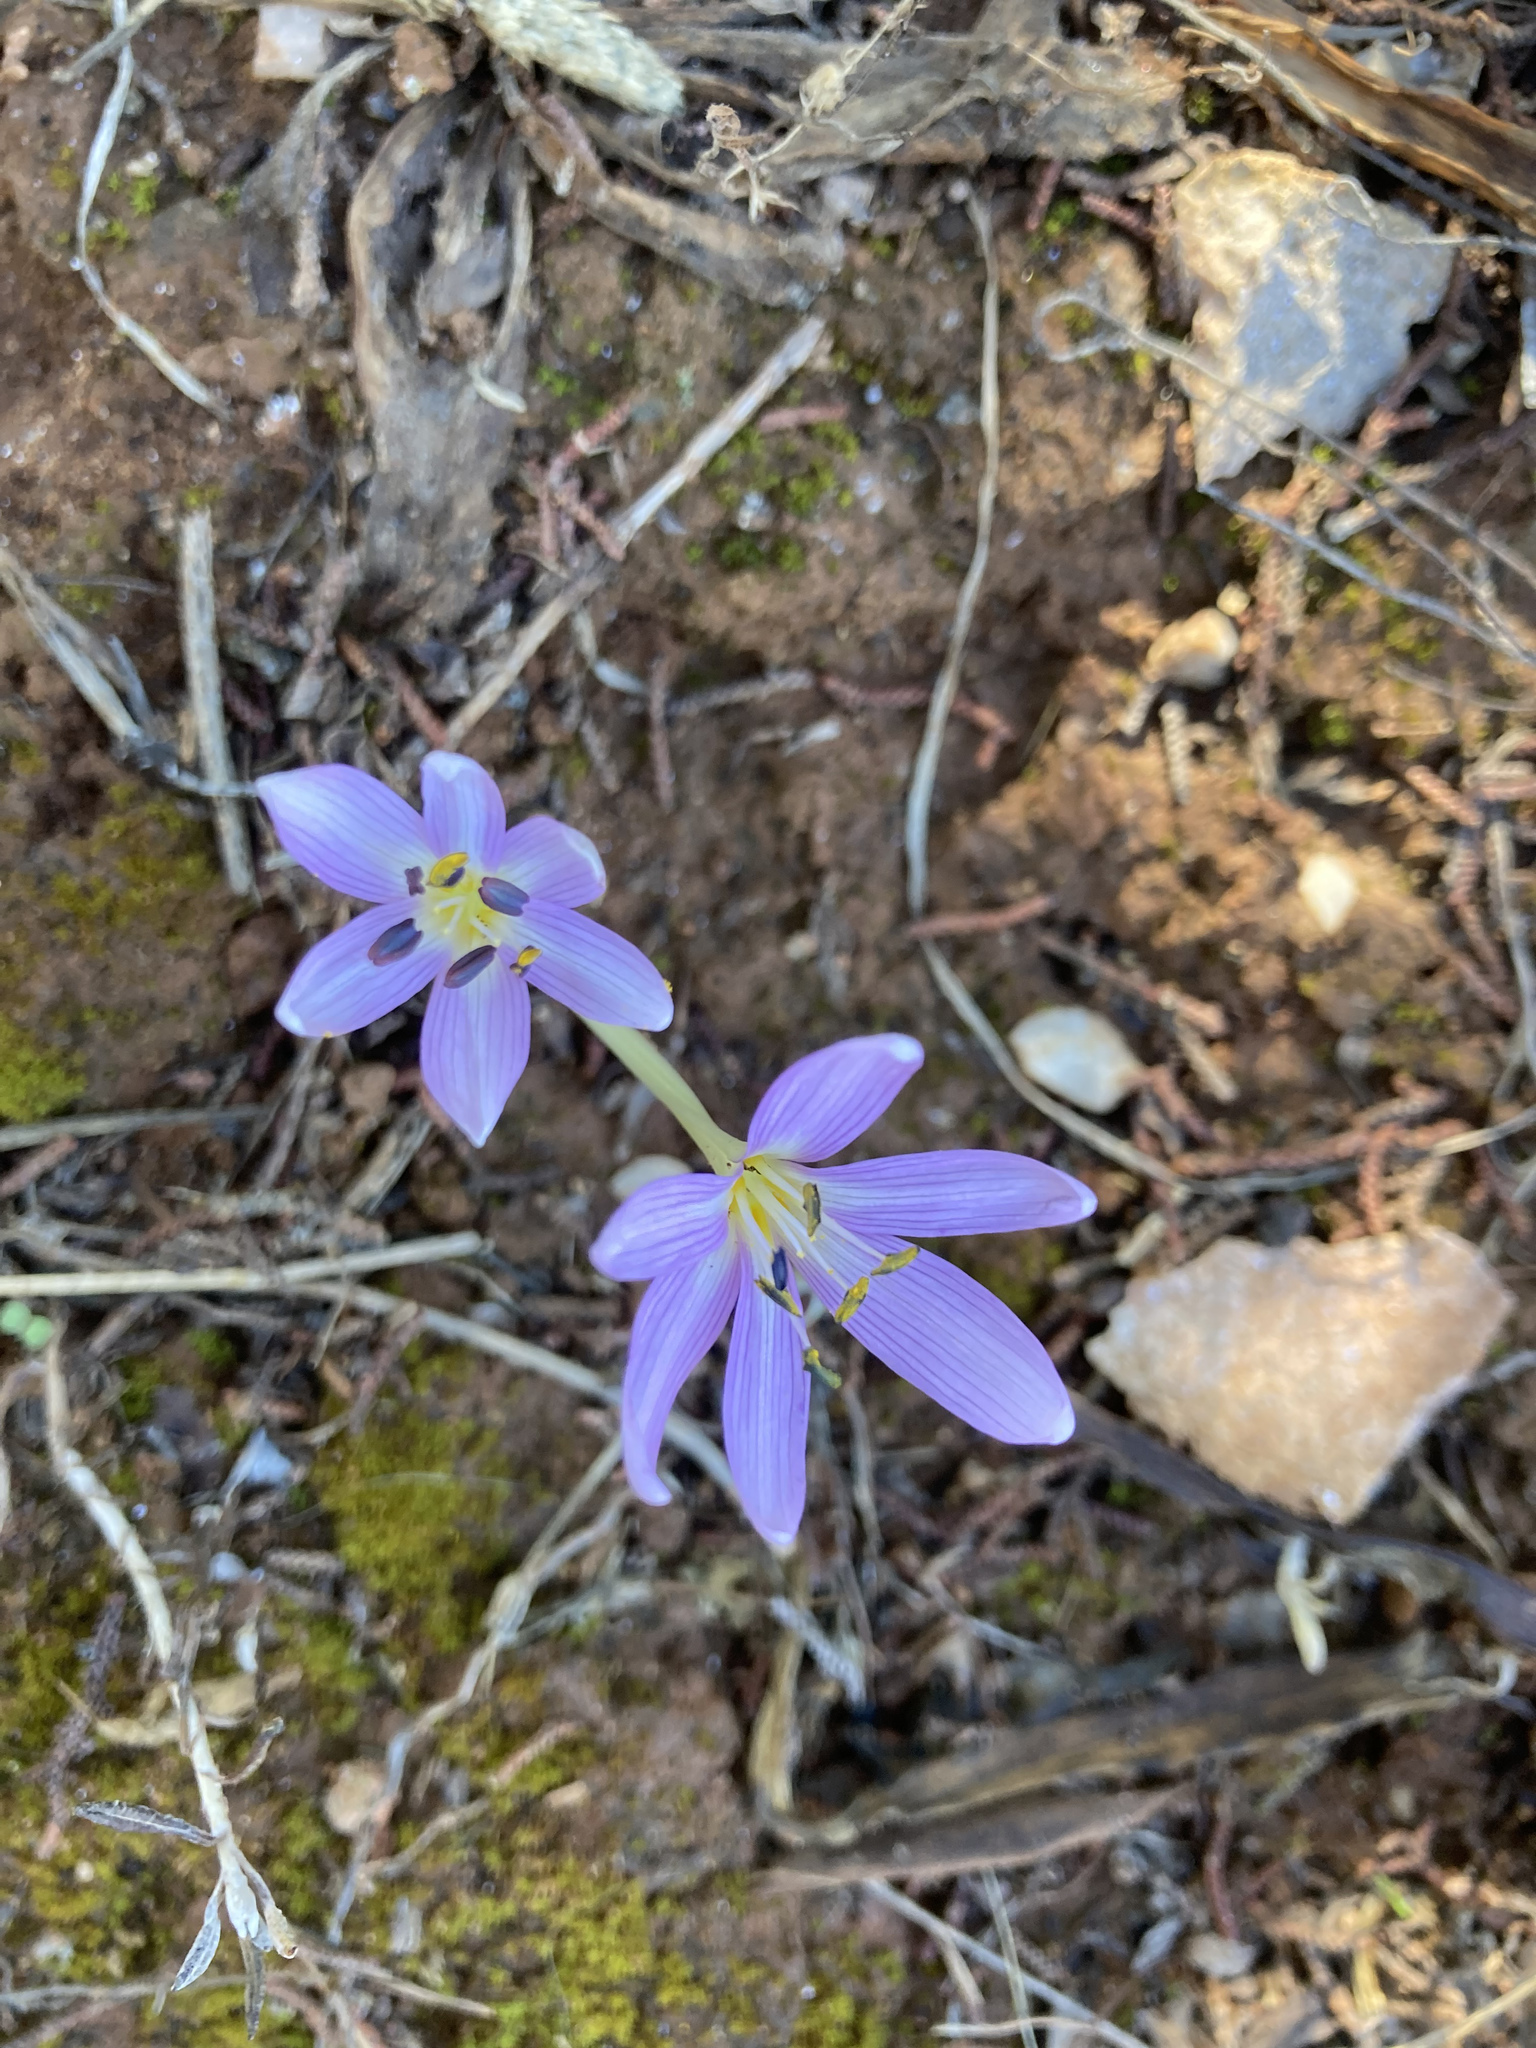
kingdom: Plantae
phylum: Tracheophyta
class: Liliopsida
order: Liliales
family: Colchicaceae
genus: Colchicum
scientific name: Colchicum cupanii
